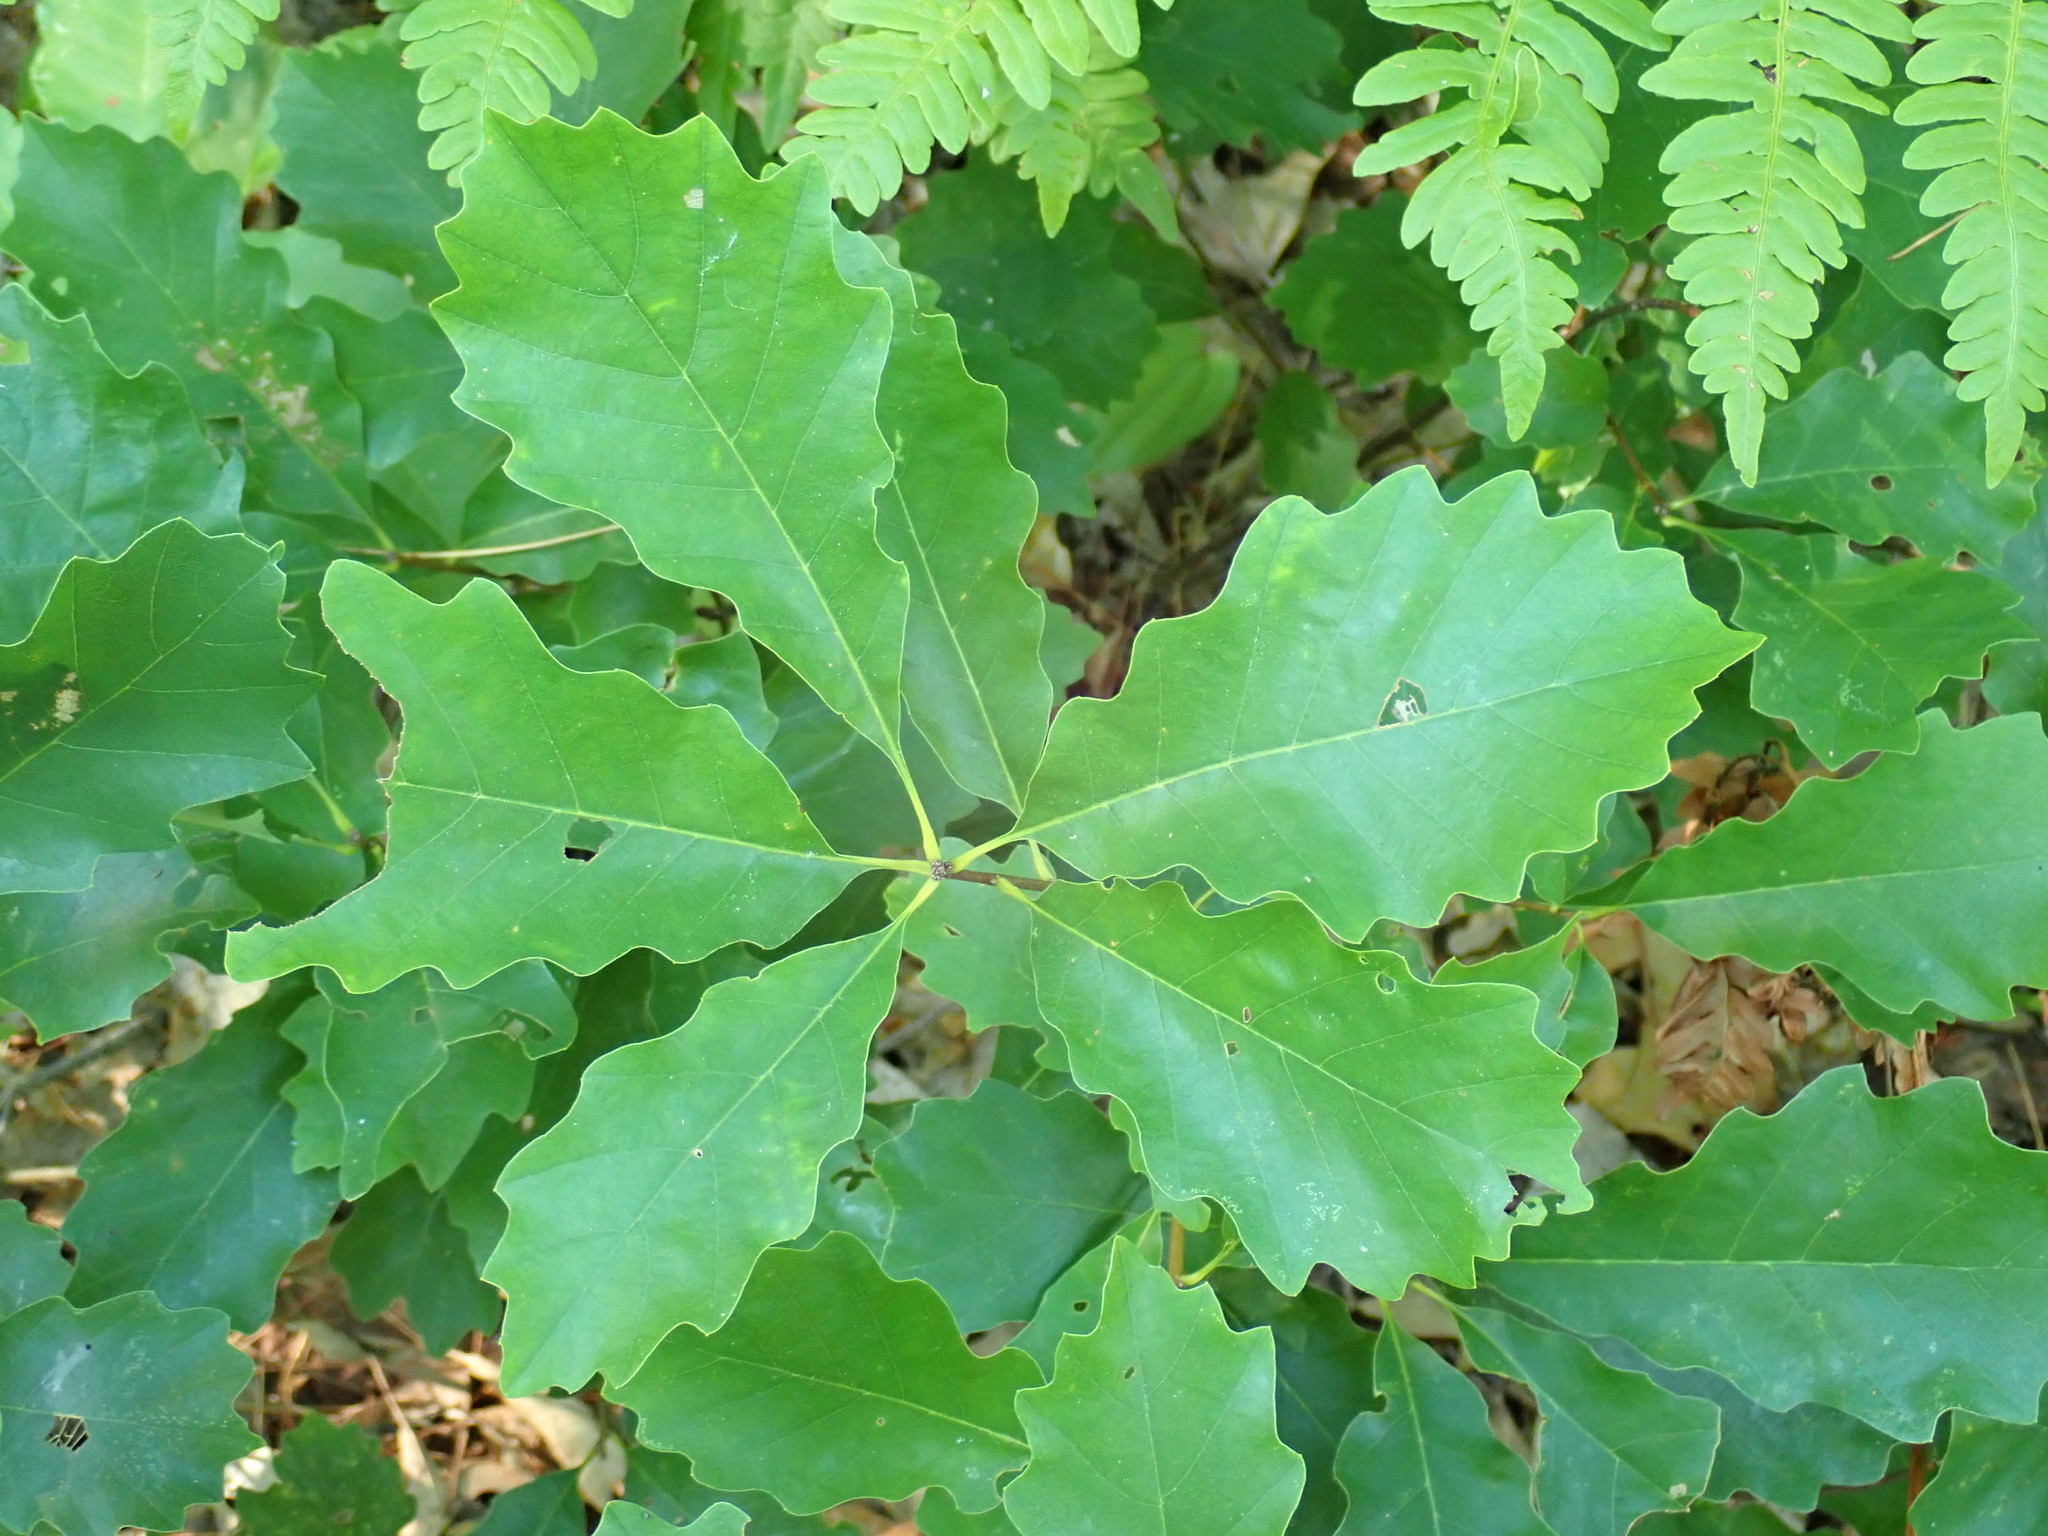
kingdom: Plantae
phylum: Tracheophyta
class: Magnoliopsida
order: Fagales
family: Fagaceae
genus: Quercus
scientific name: Quercus montana
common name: Chestnut oak
